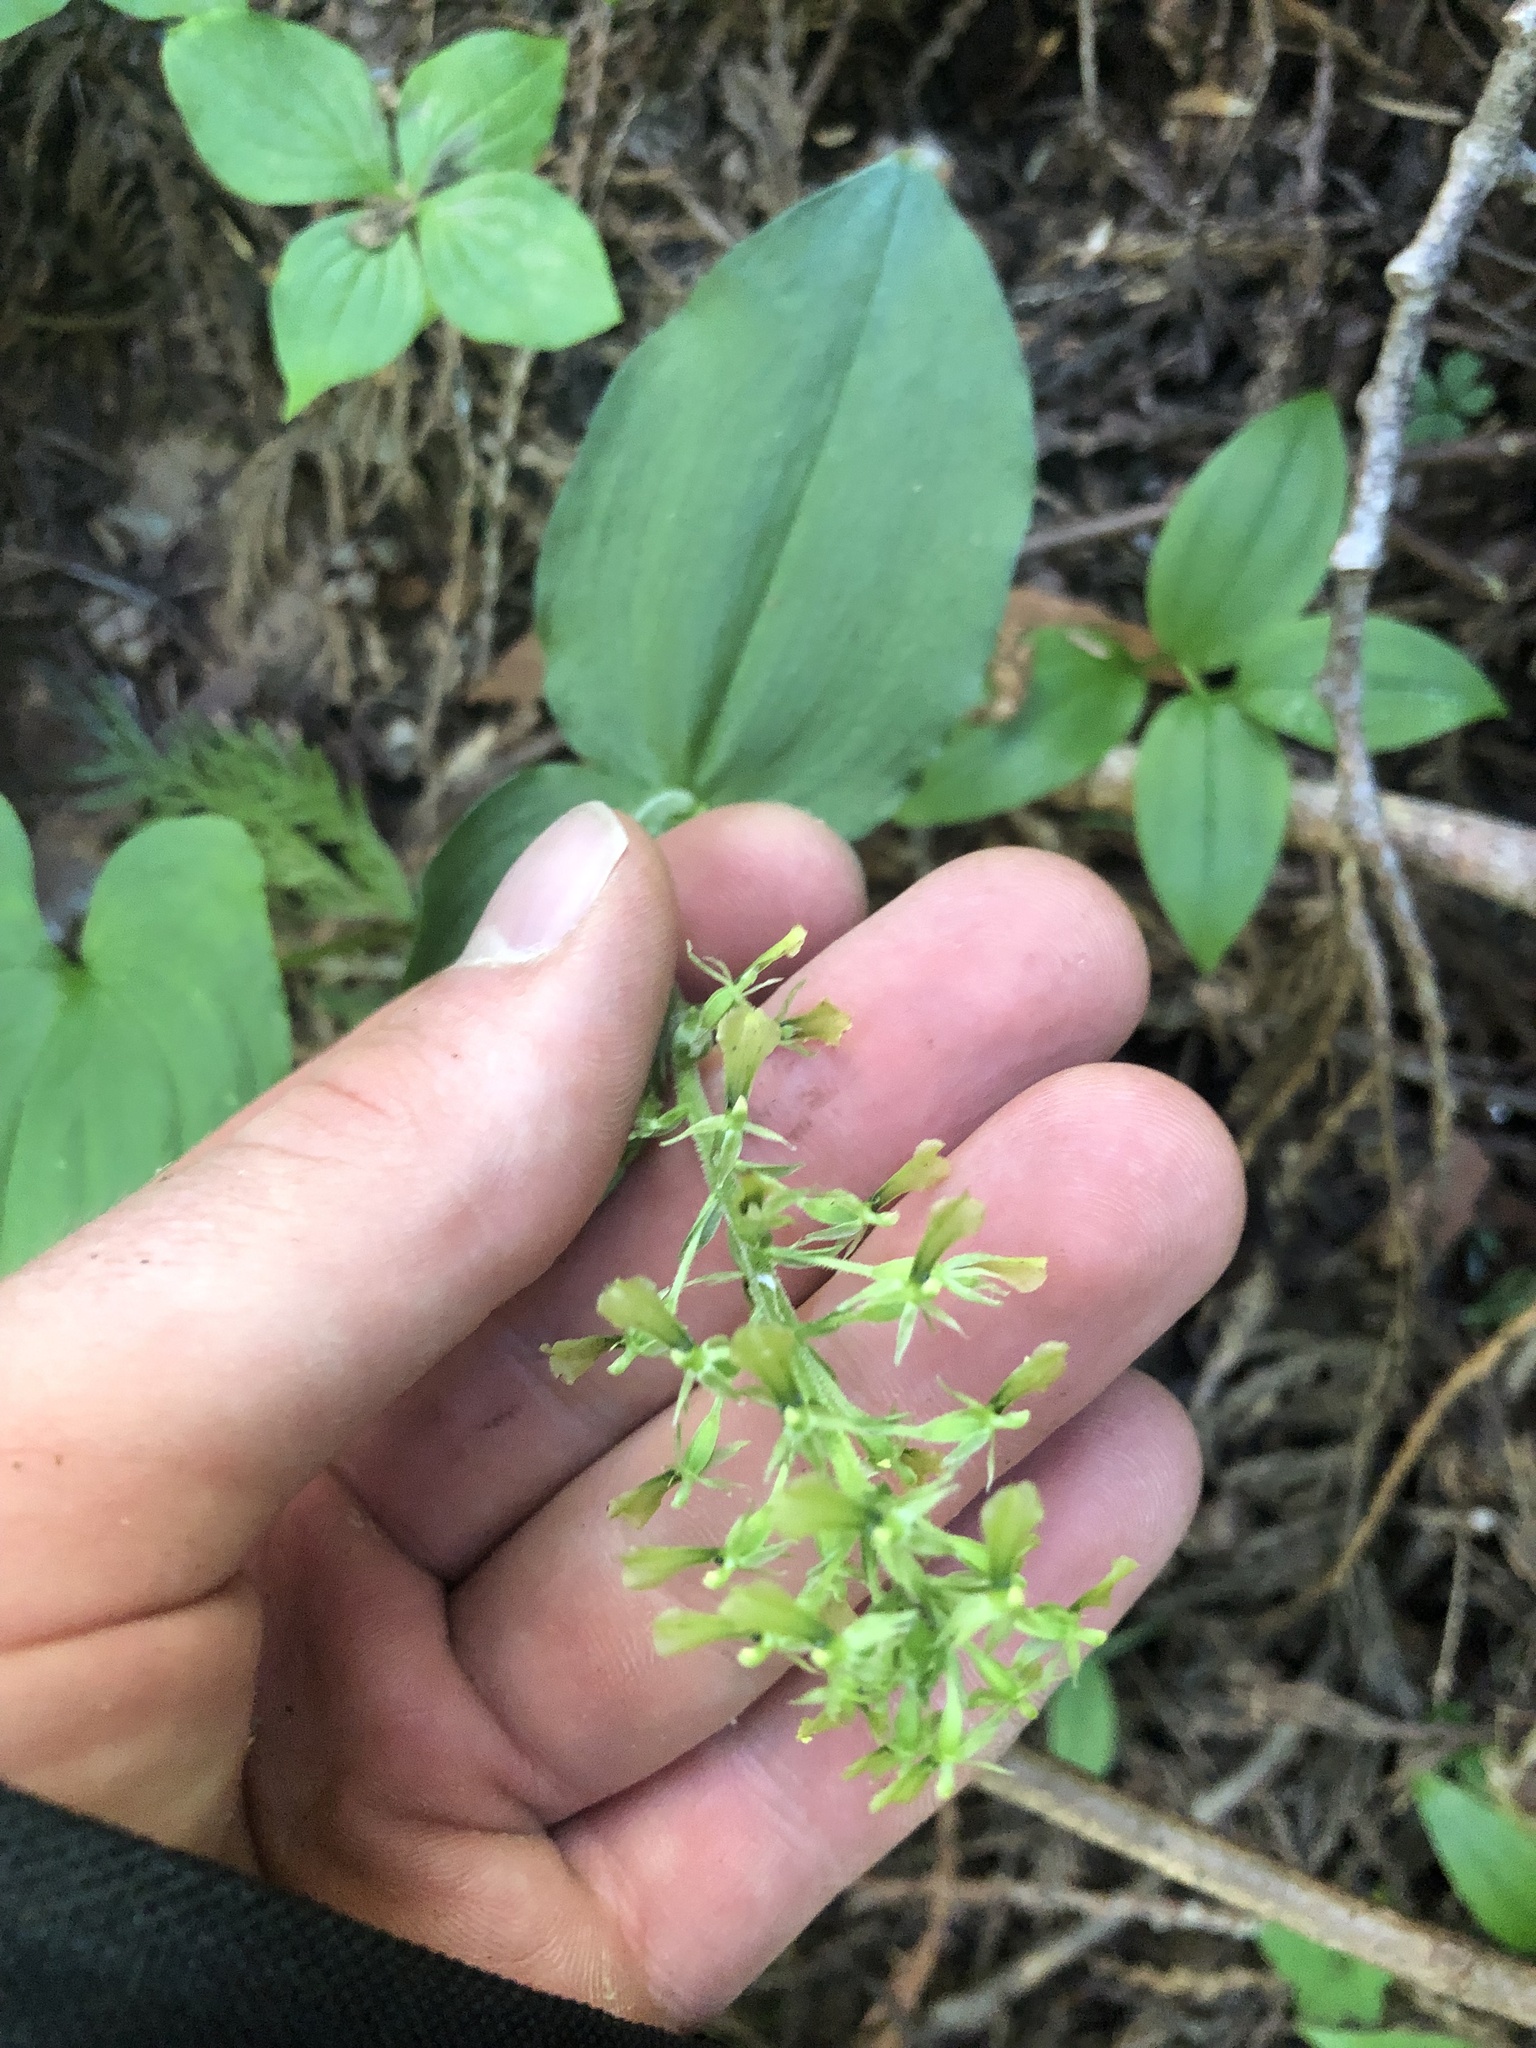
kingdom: Plantae
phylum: Tracheophyta
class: Liliopsida
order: Asparagales
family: Orchidaceae
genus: Neottia
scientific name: Neottia banksiana
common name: Northwestern twayblade
